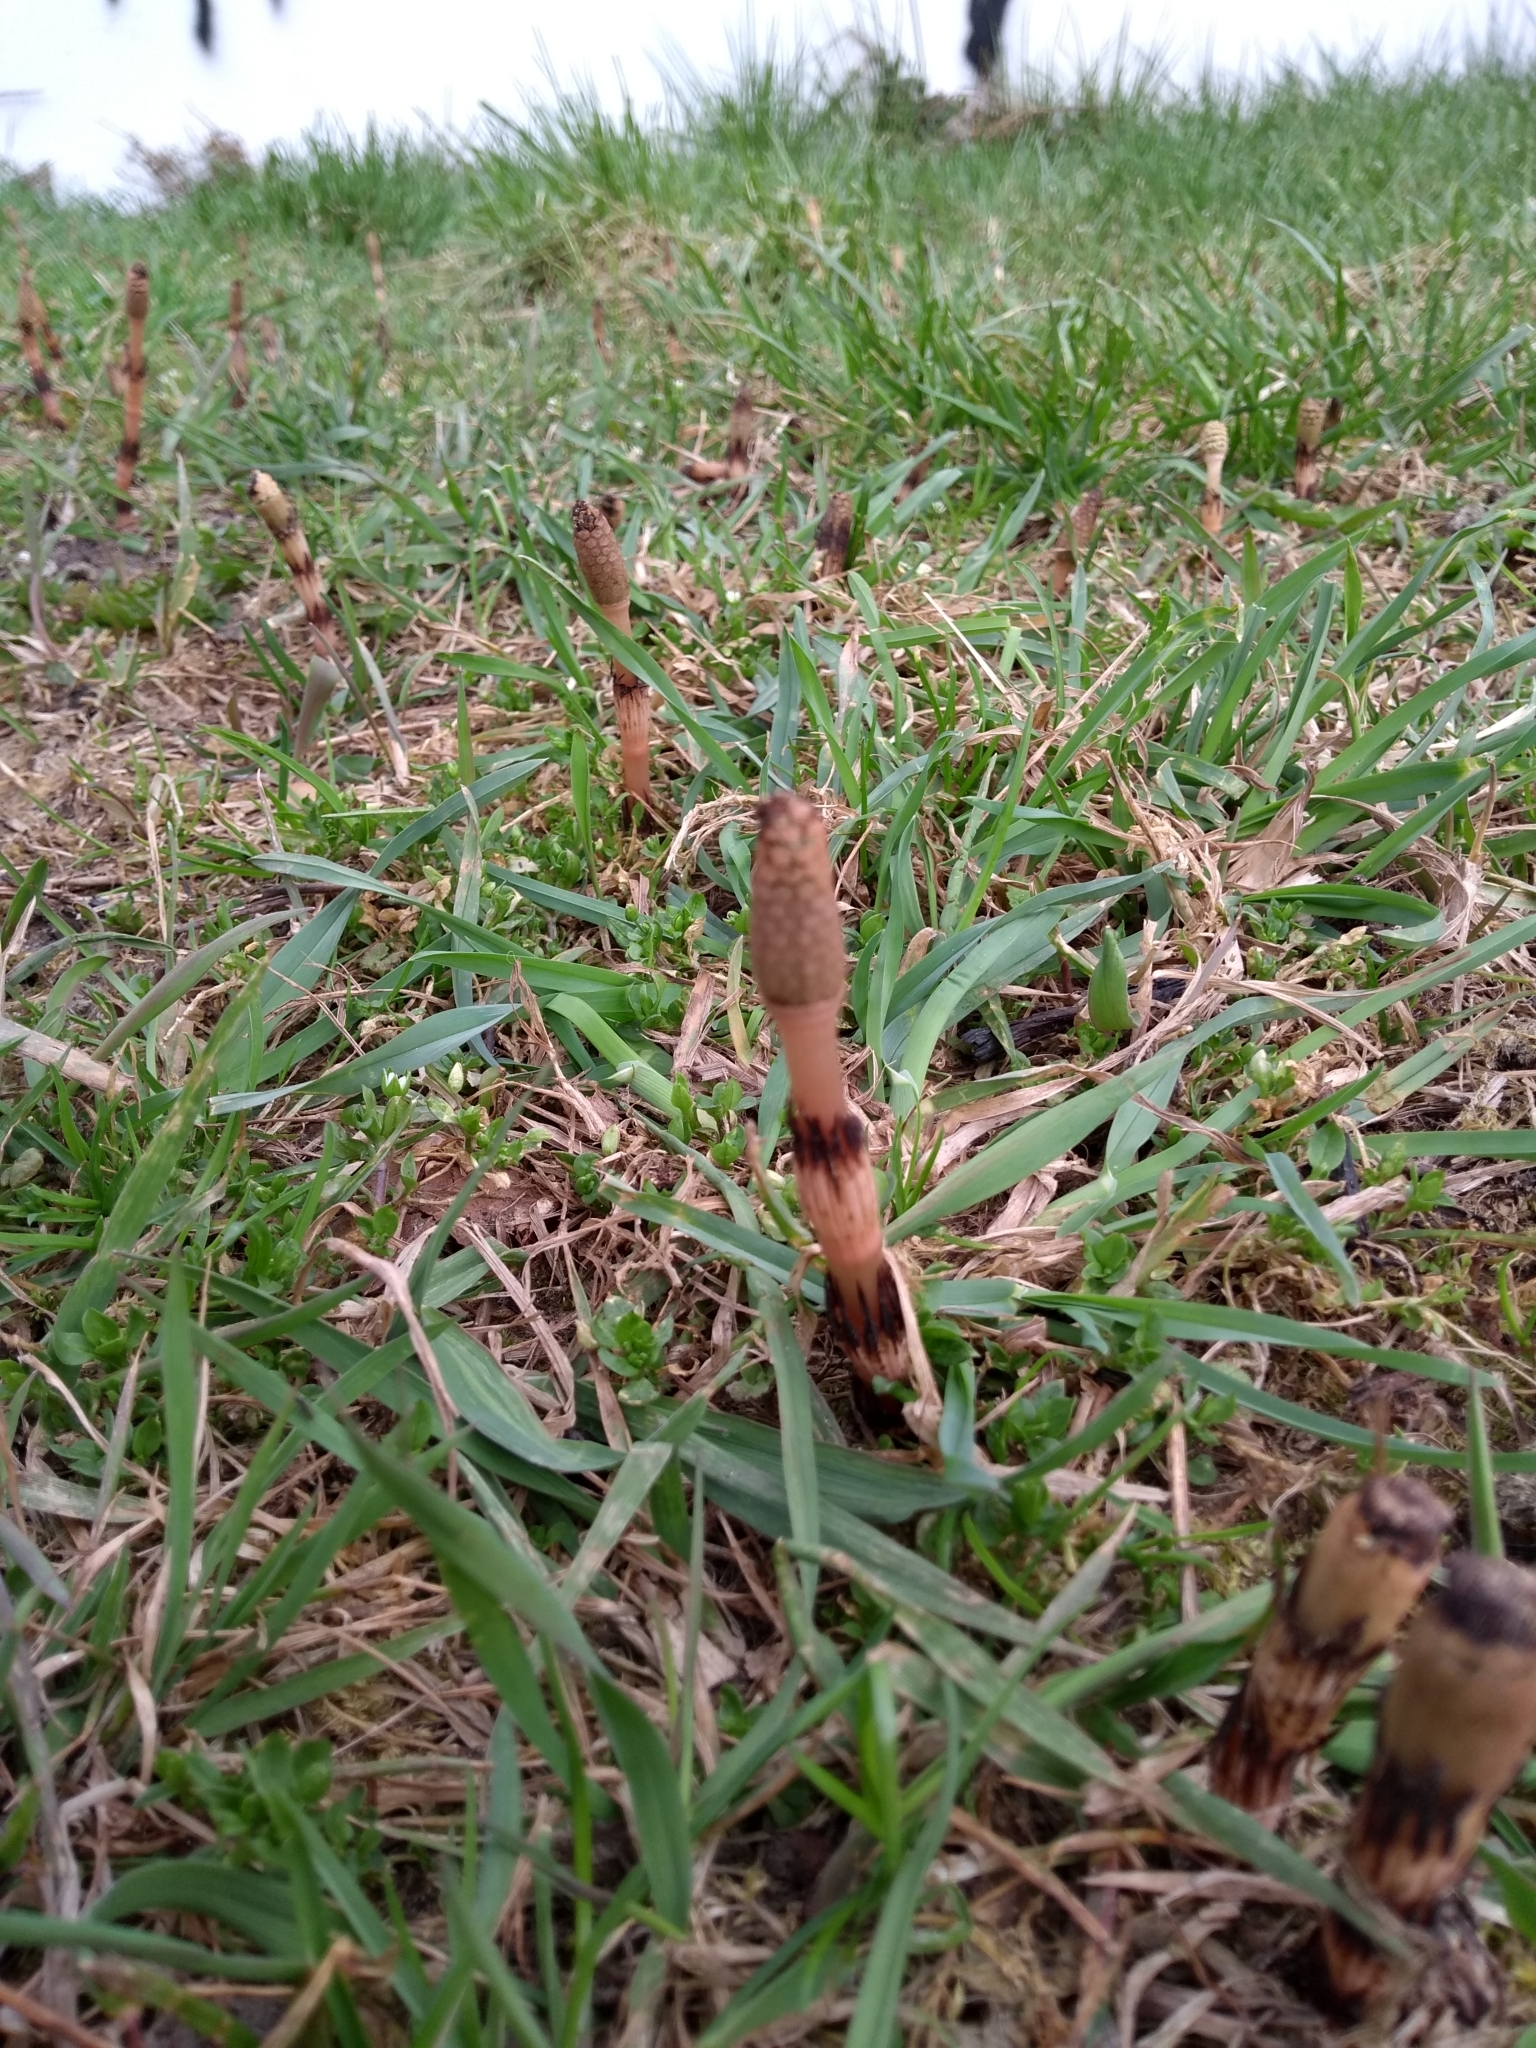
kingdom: Plantae
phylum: Tracheophyta
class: Polypodiopsida
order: Equisetales
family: Equisetaceae
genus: Equisetum
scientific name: Equisetum arvense
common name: Field horsetail
